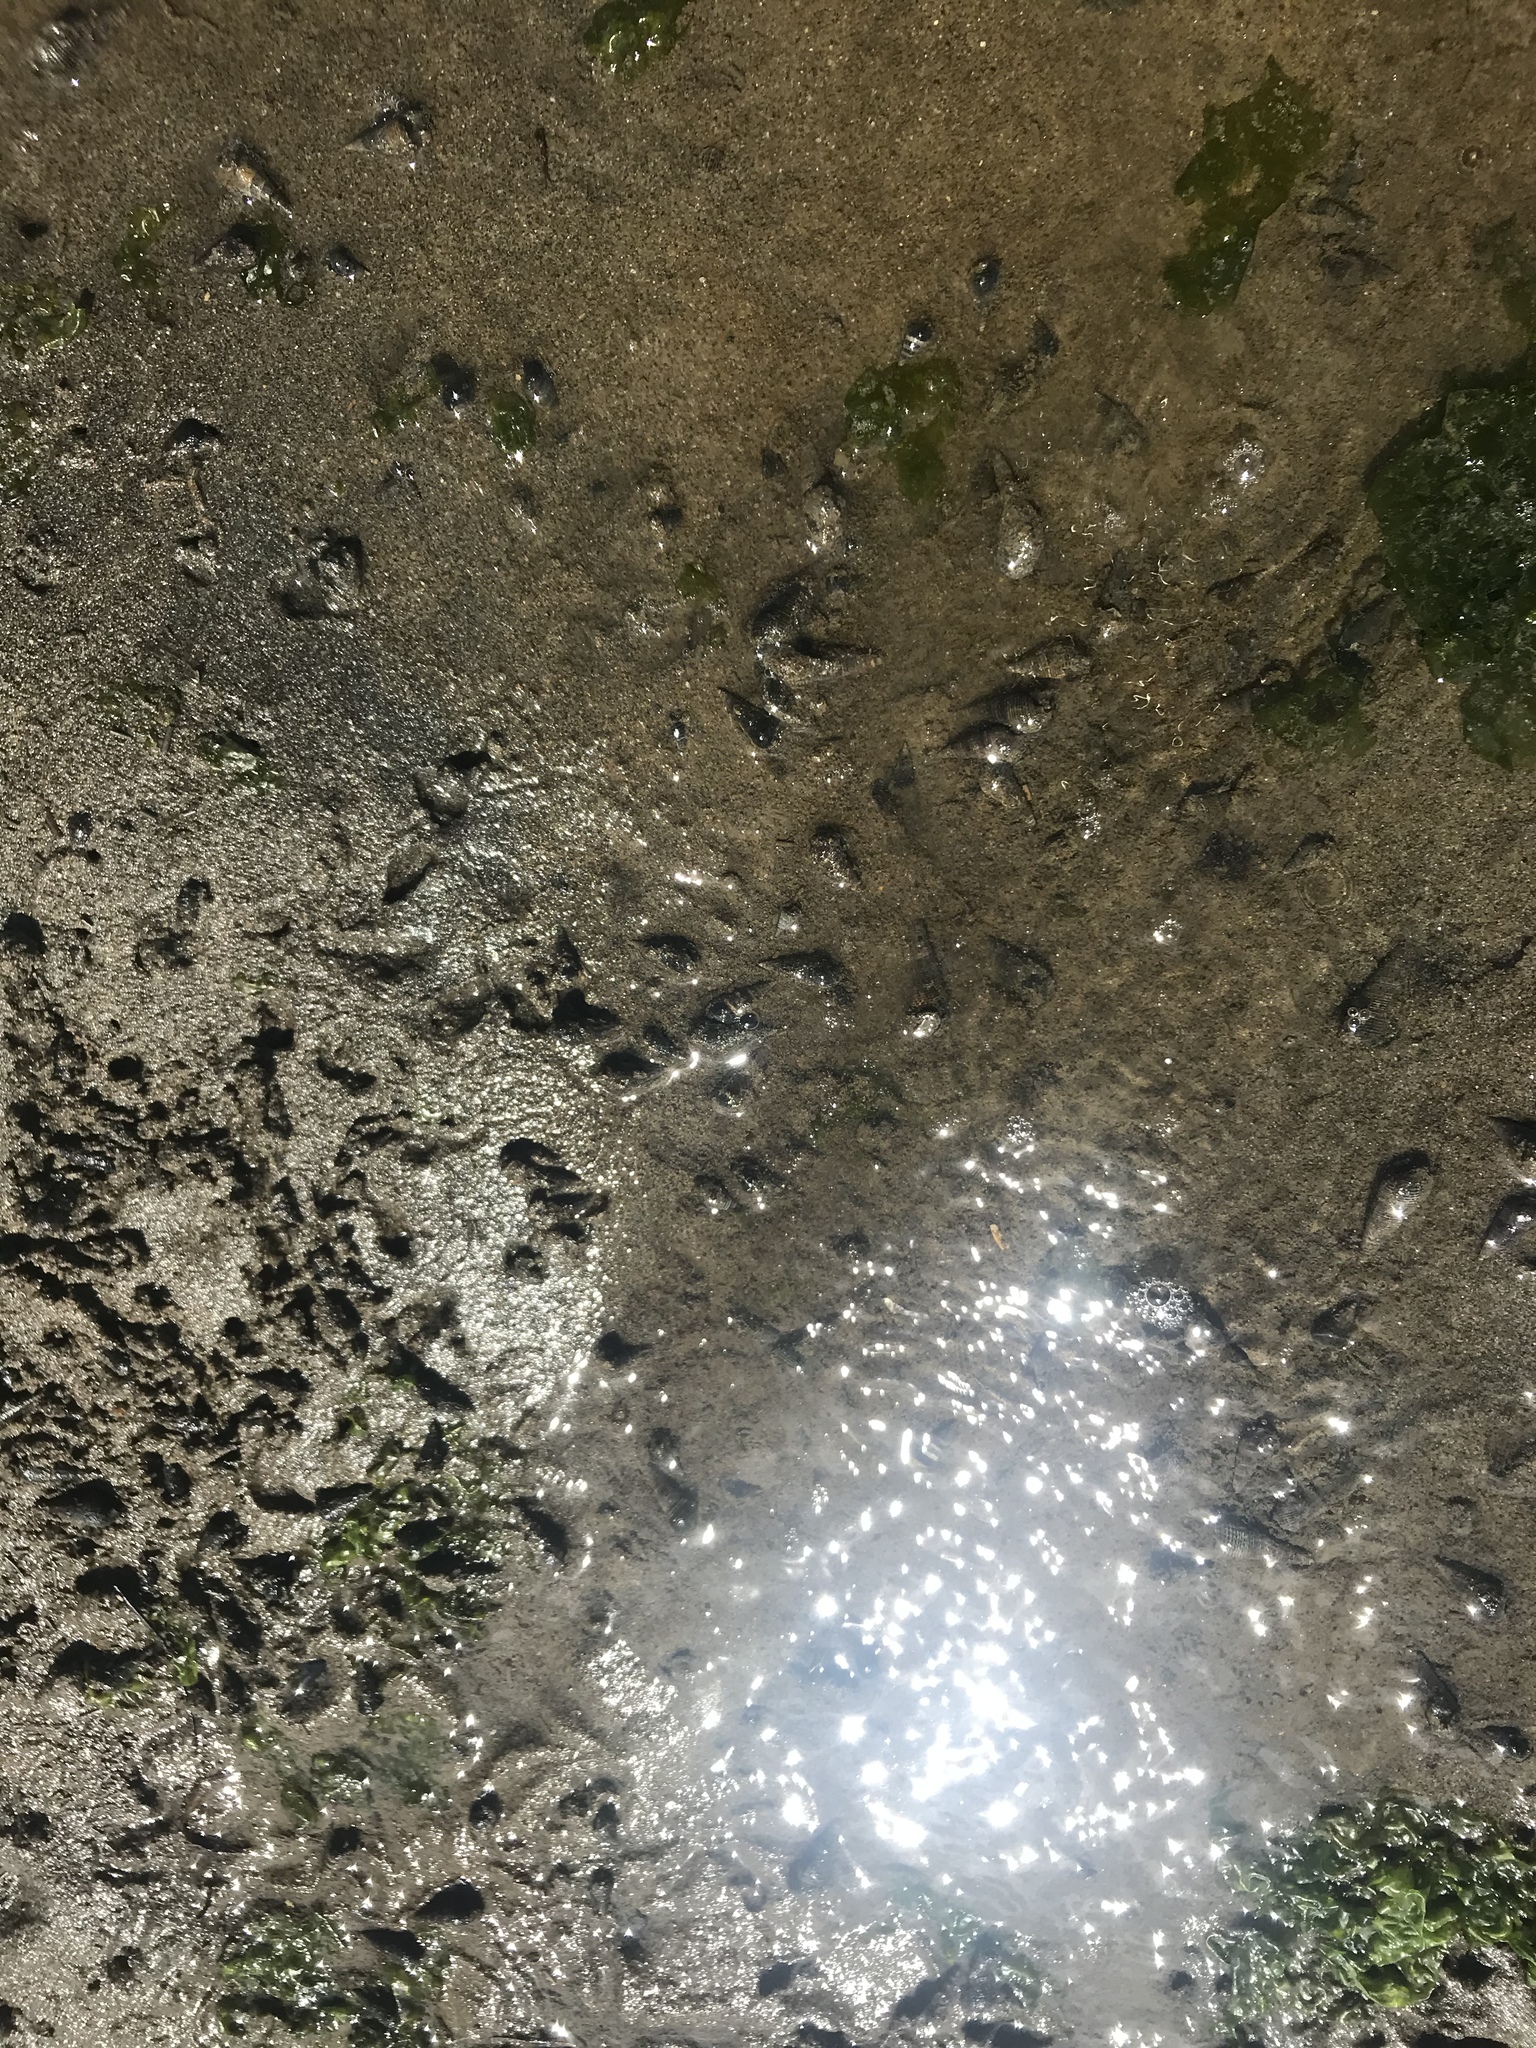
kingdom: Animalia
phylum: Mollusca
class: Gastropoda
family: Batillariidae
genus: Batillaria
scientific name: Batillaria attramentaria
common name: Japanese false cerith
